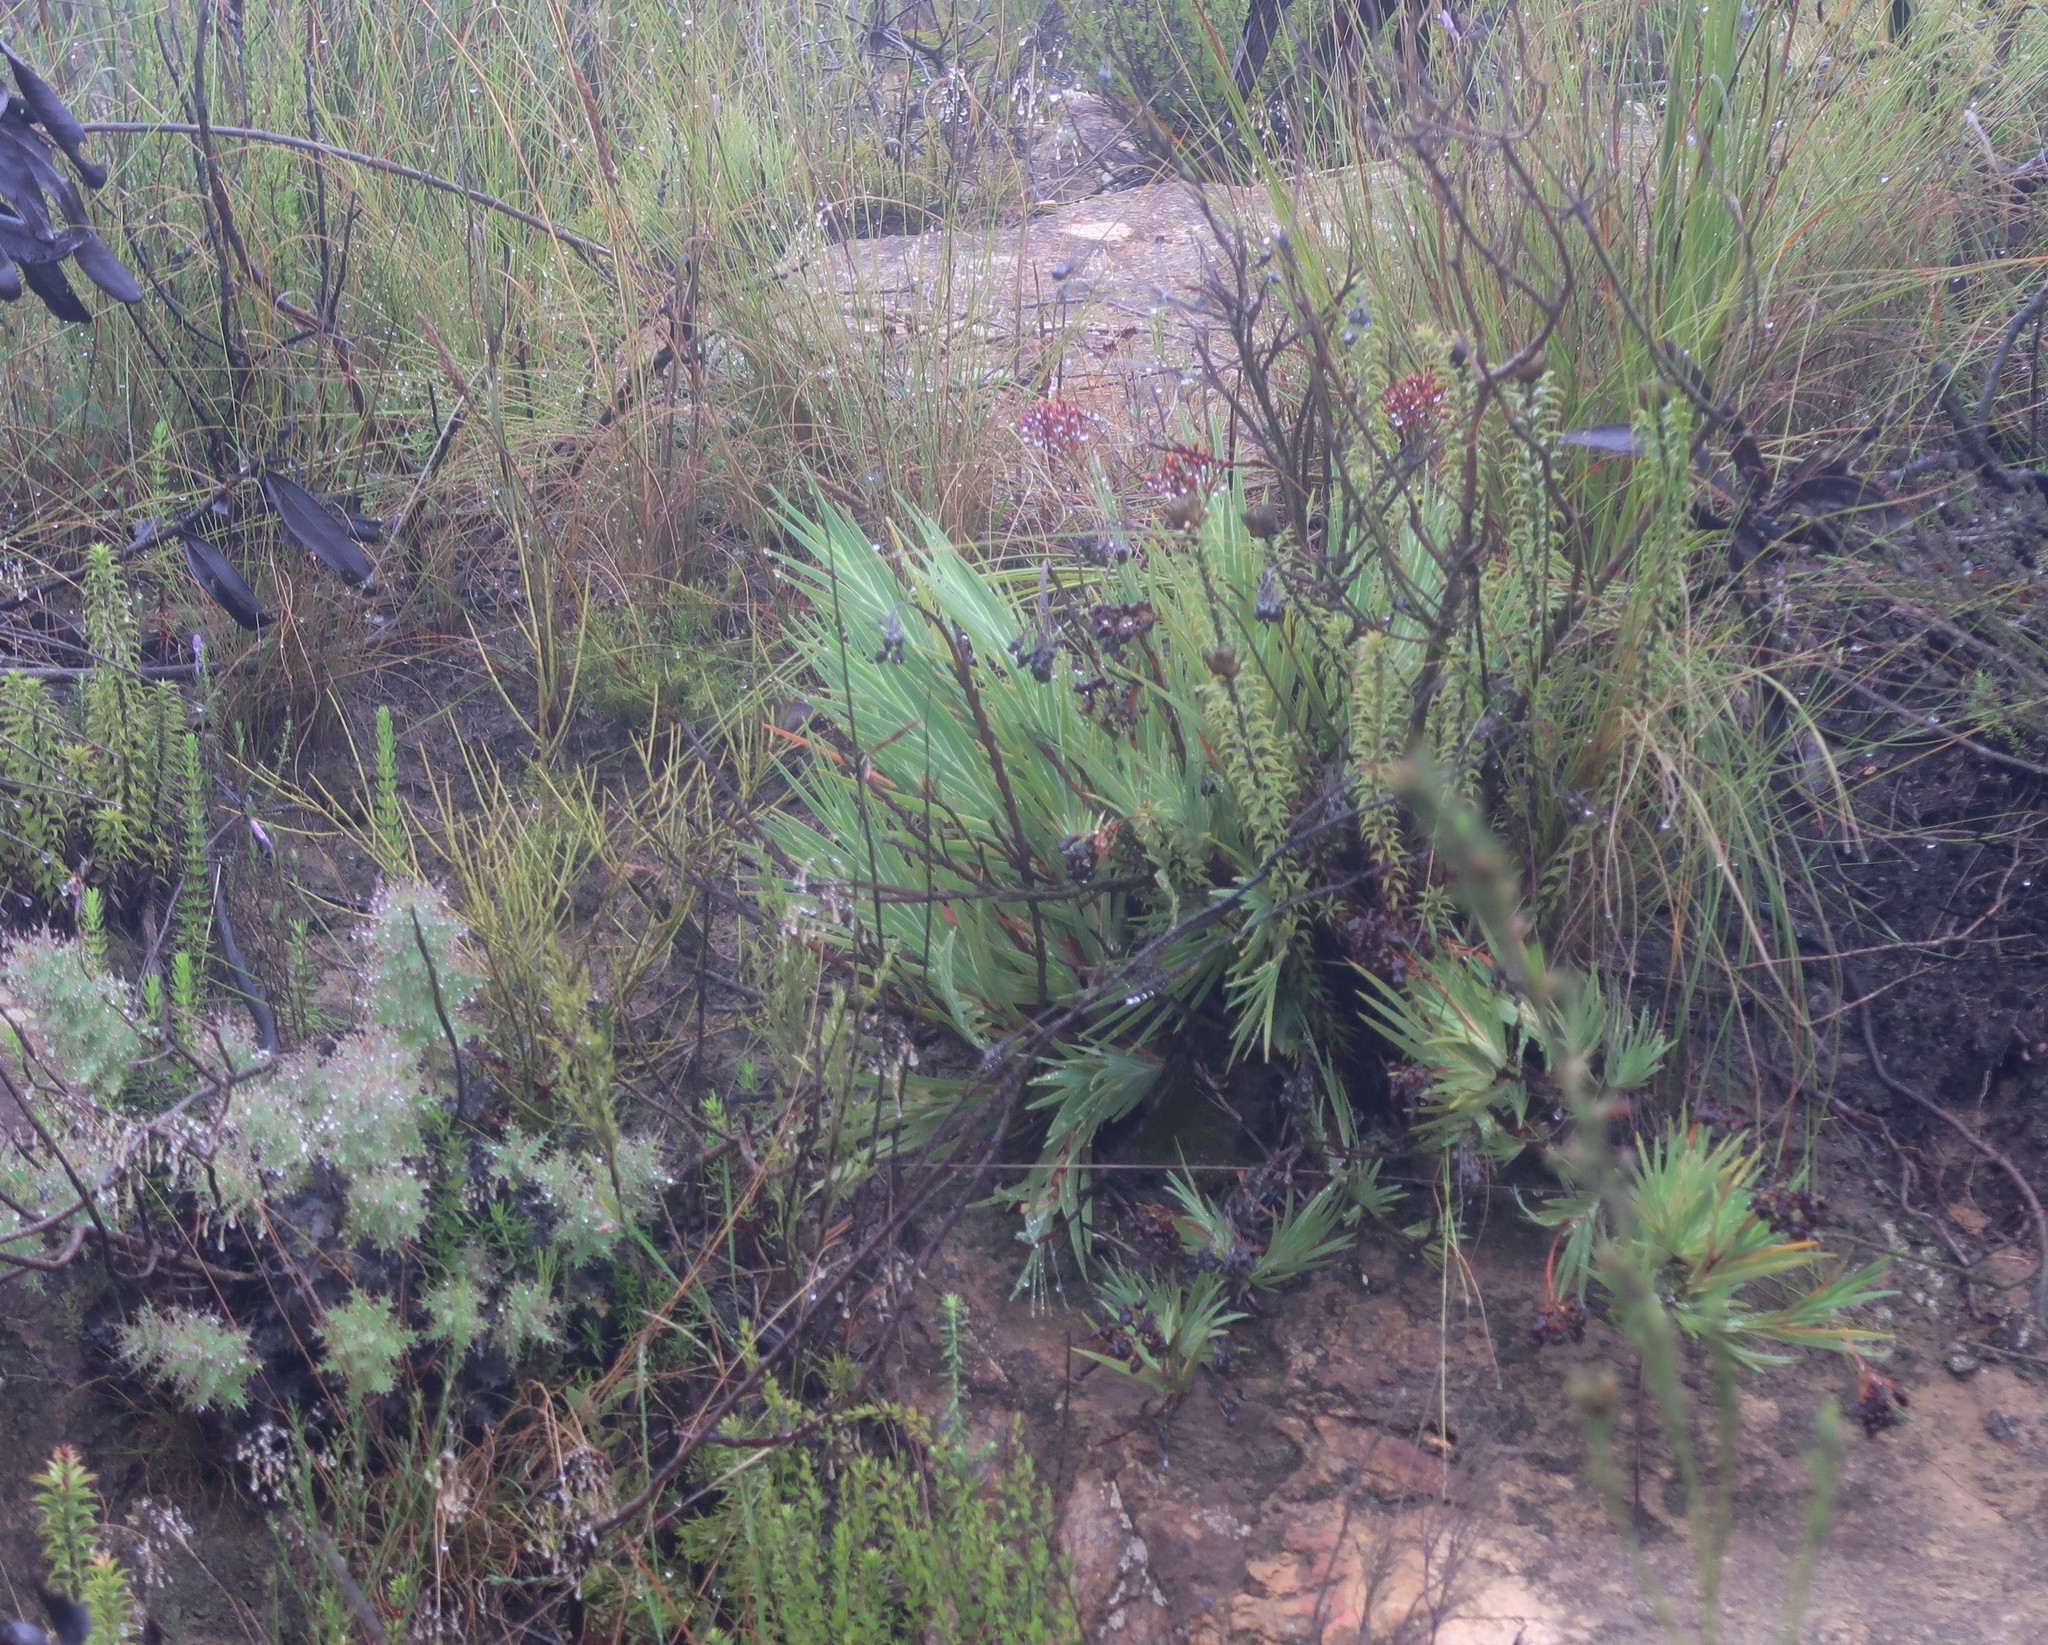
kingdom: Plantae
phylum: Tracheophyta
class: Liliopsida
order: Asparagales
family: Iridaceae
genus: Nivenia
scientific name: Nivenia binata
